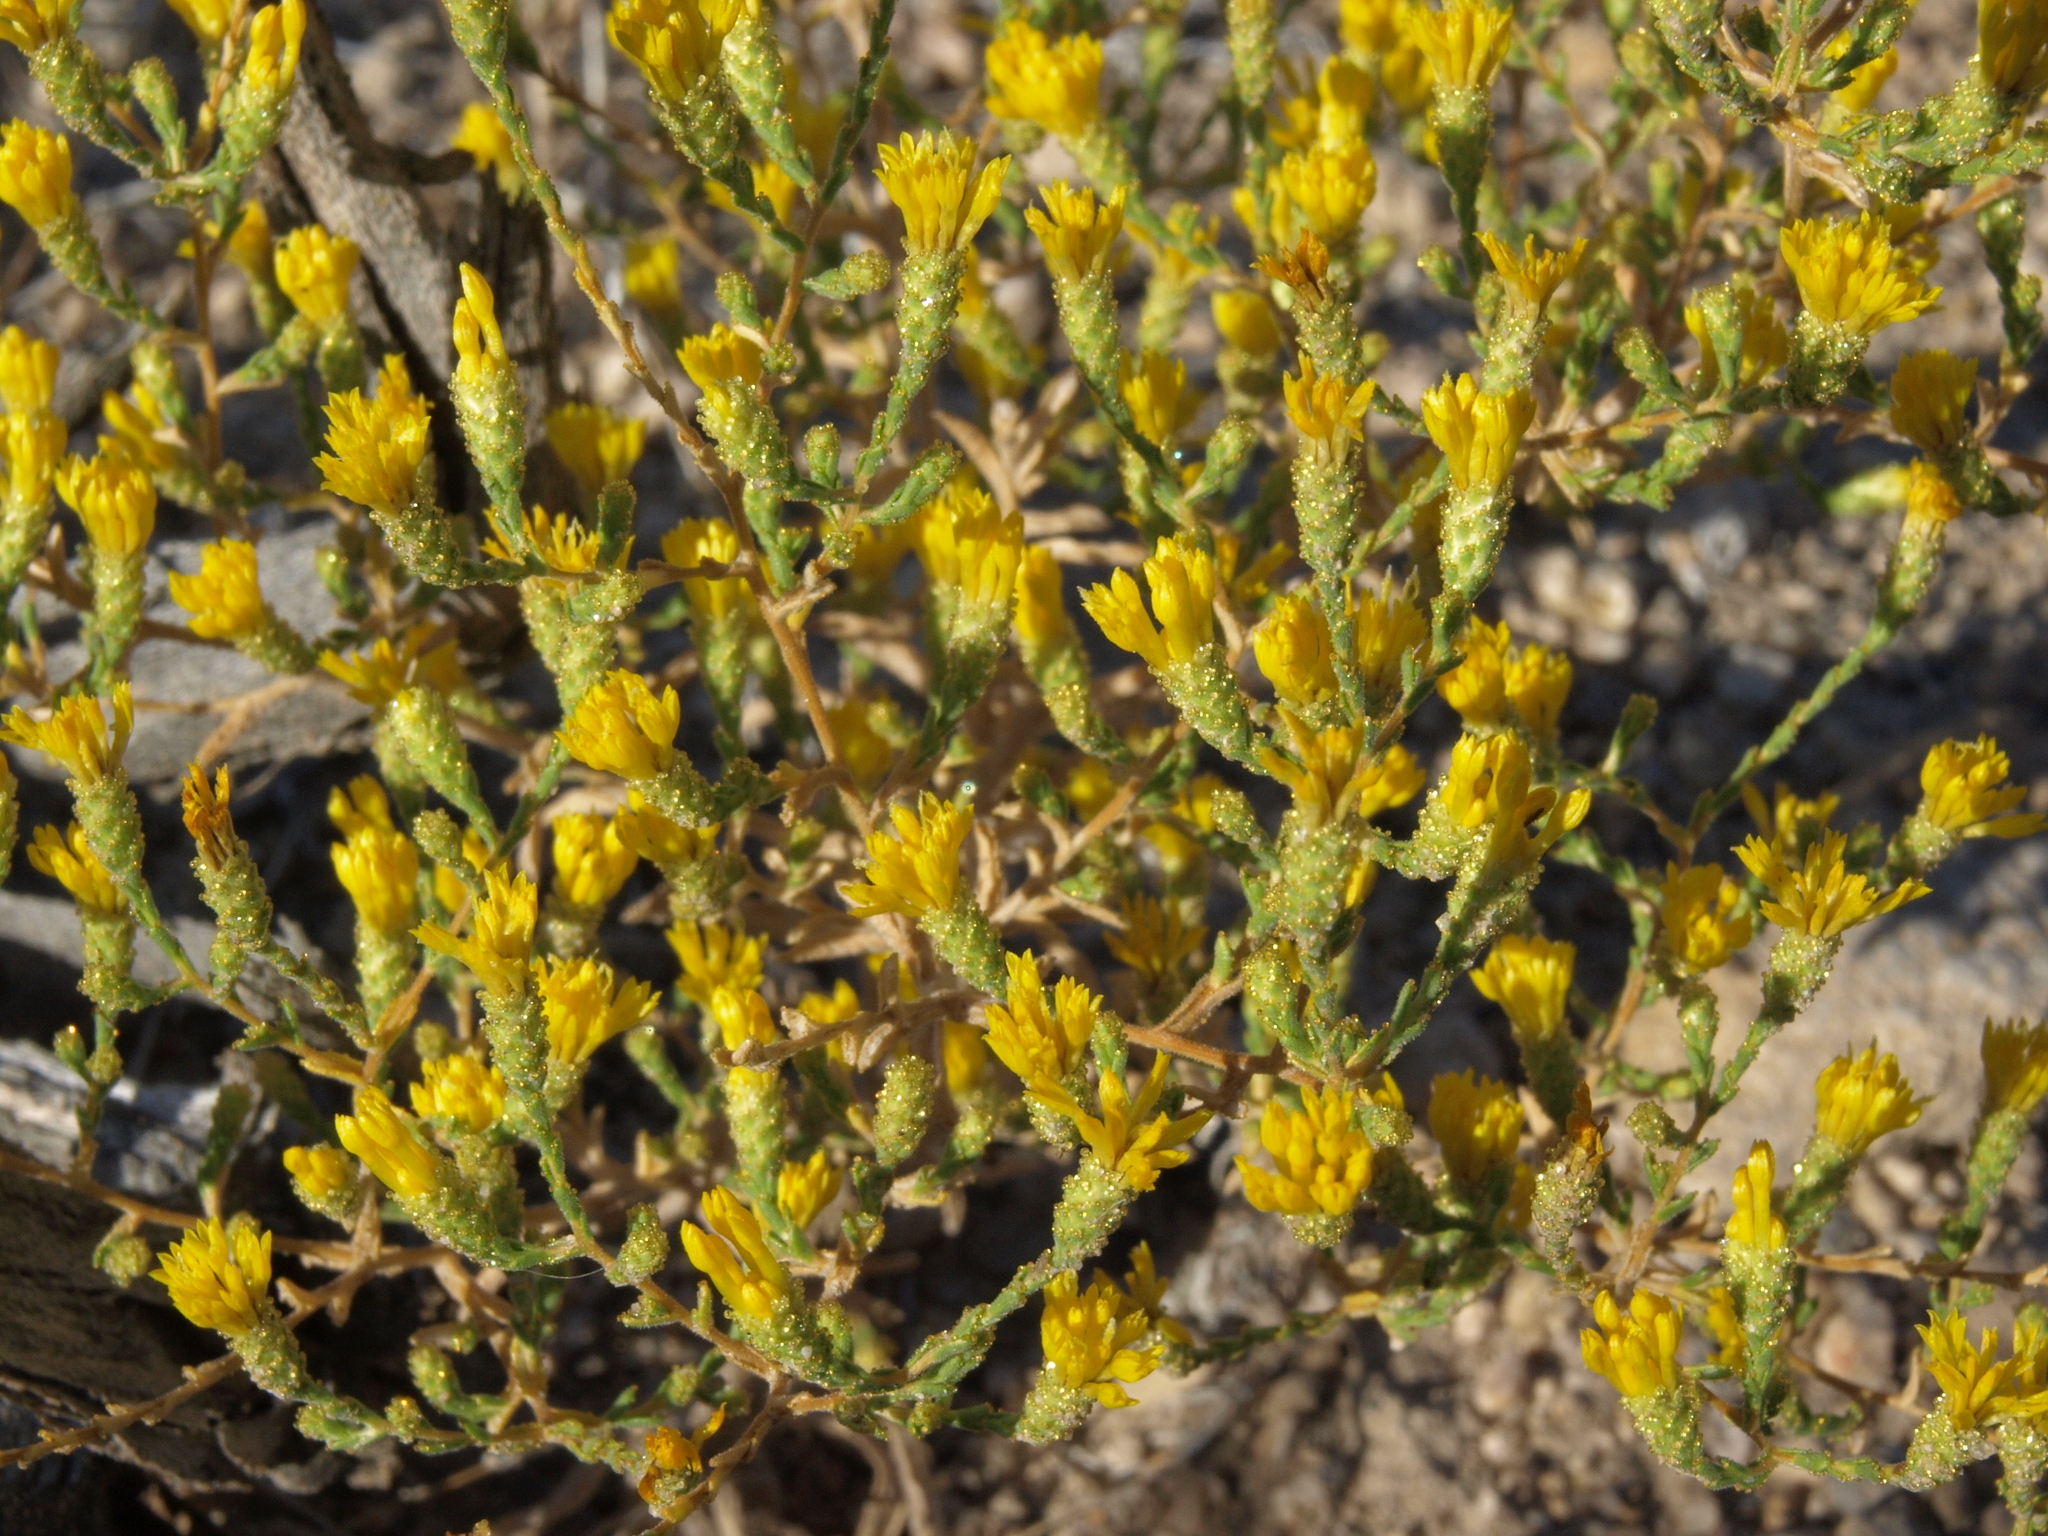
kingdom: Plantae
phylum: Tracheophyta
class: Magnoliopsida
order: Asterales
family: Asteraceae
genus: Lessingia
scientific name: Lessingia glandulifera
